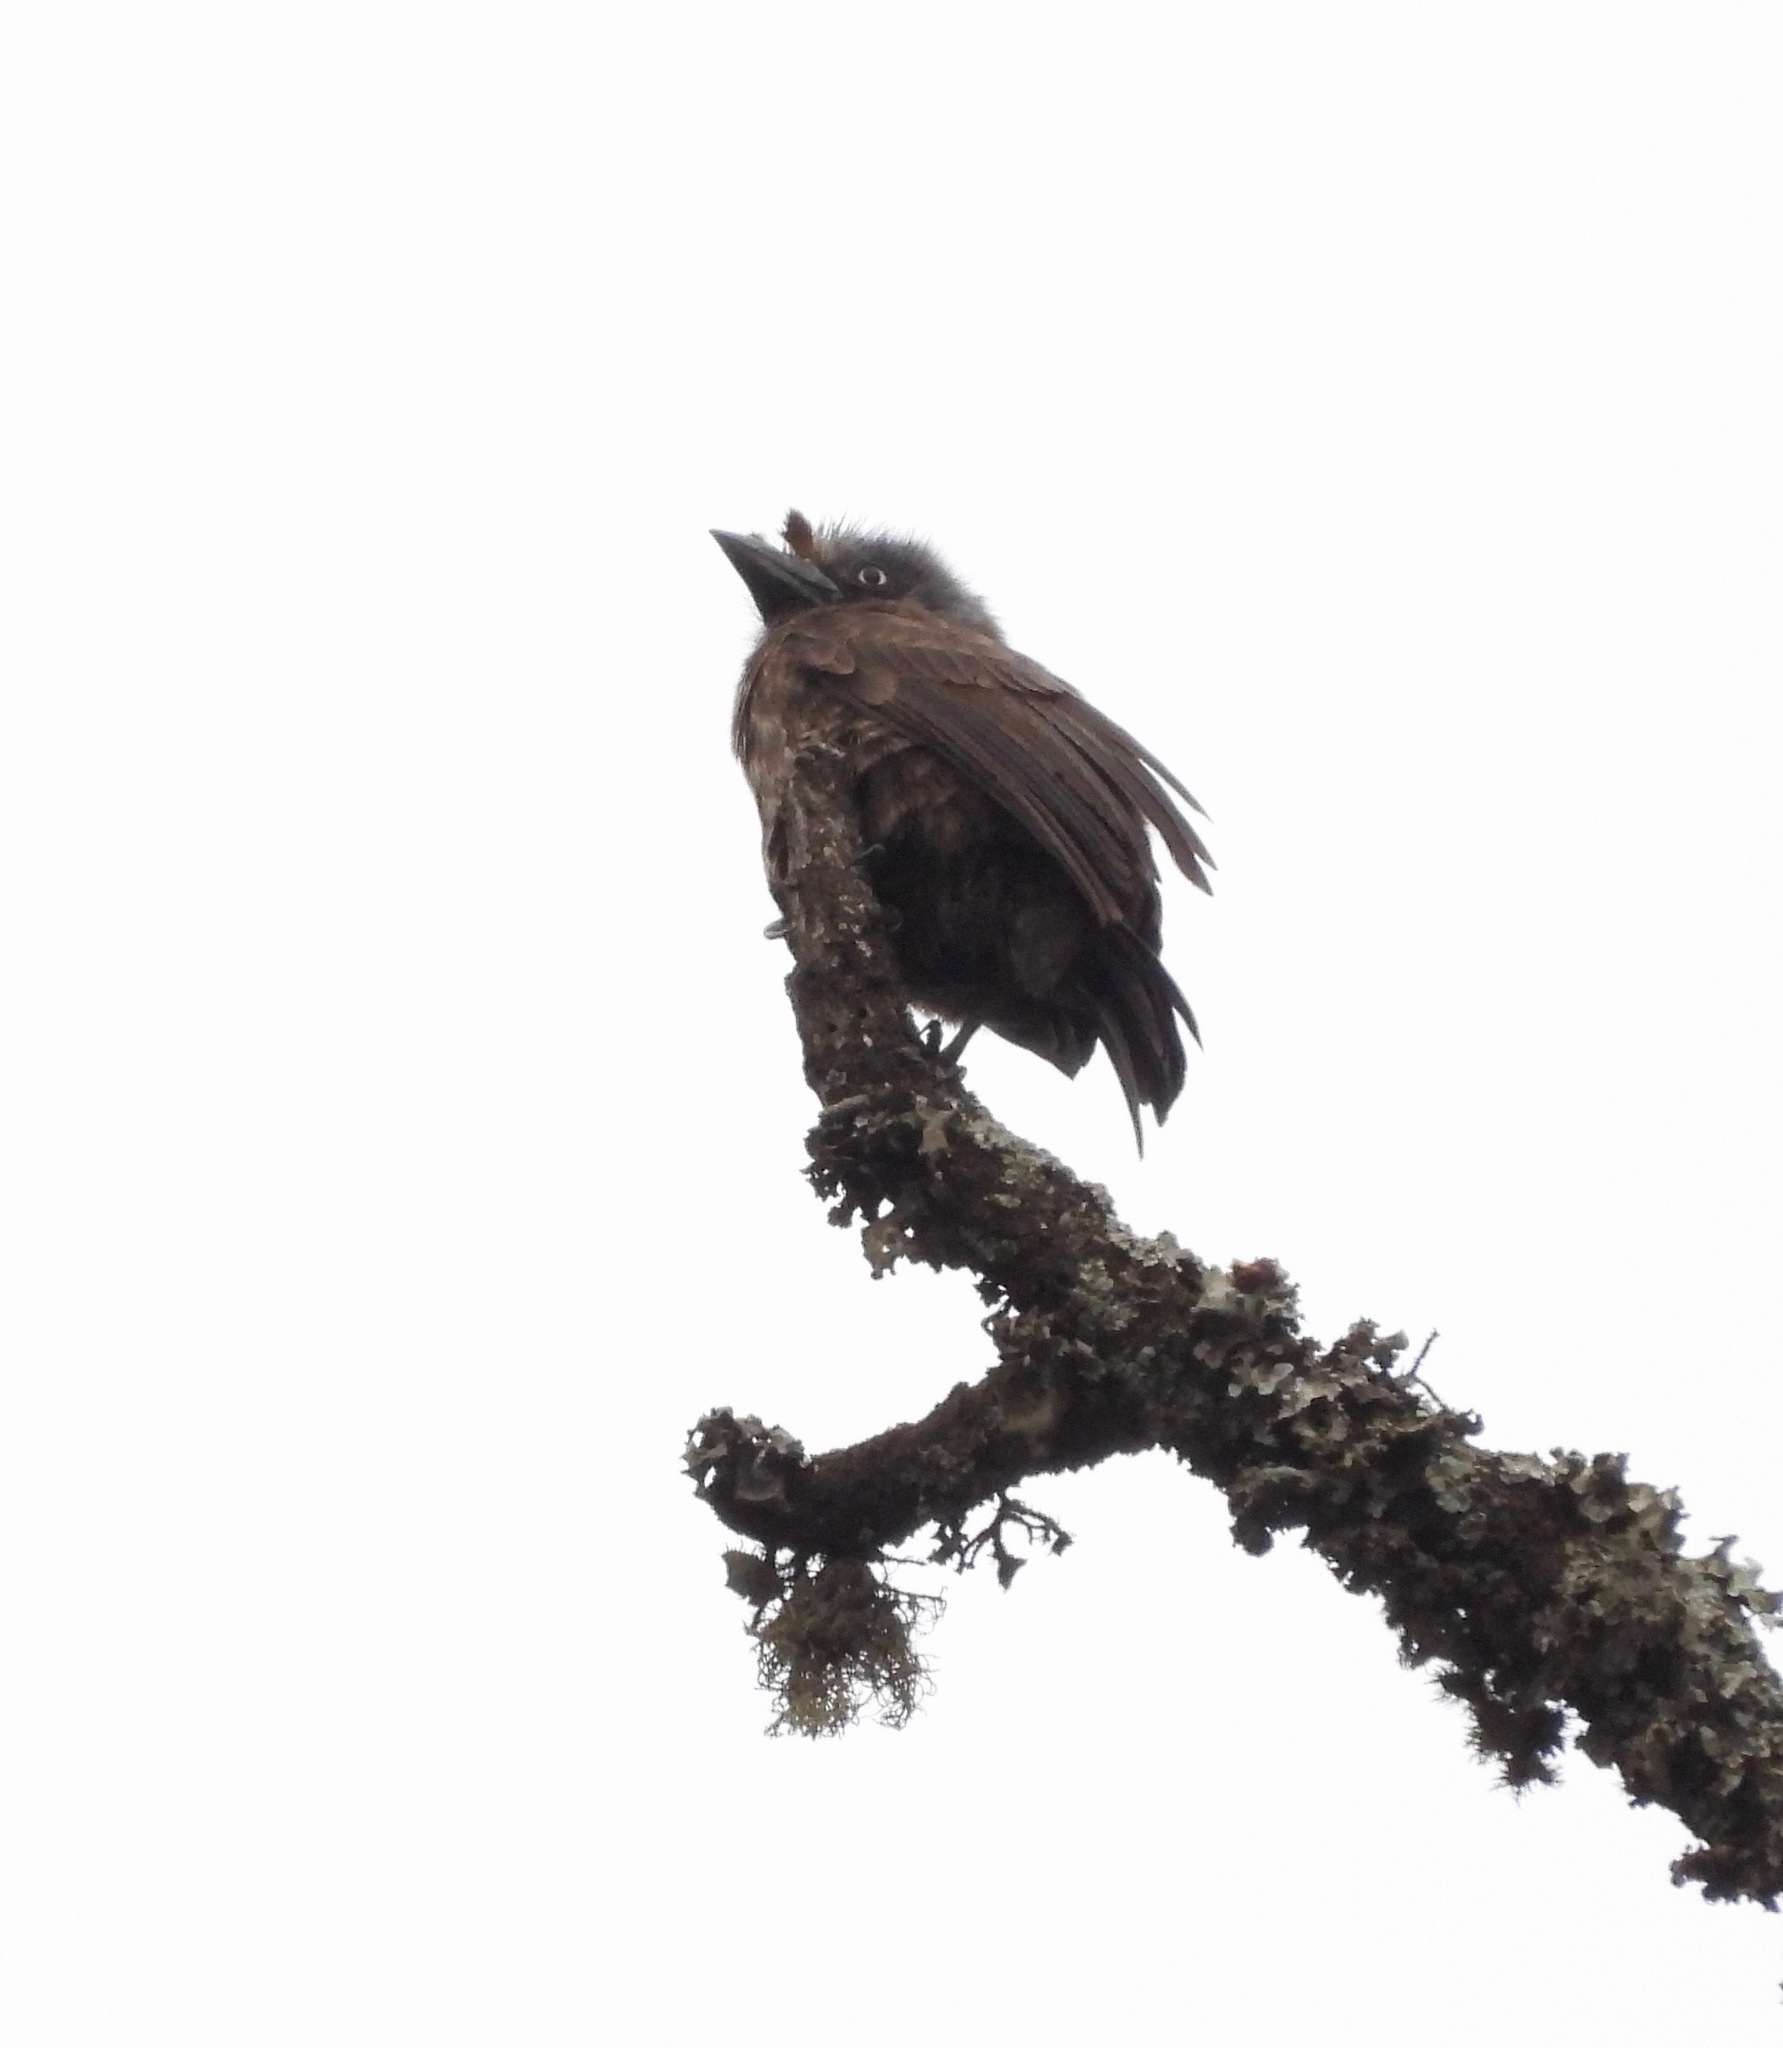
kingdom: Animalia
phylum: Chordata
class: Aves
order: Piciformes
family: Lybiidae
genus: Gymnobucco
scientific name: Gymnobucco bonapartei
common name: Grey-throated barbet
